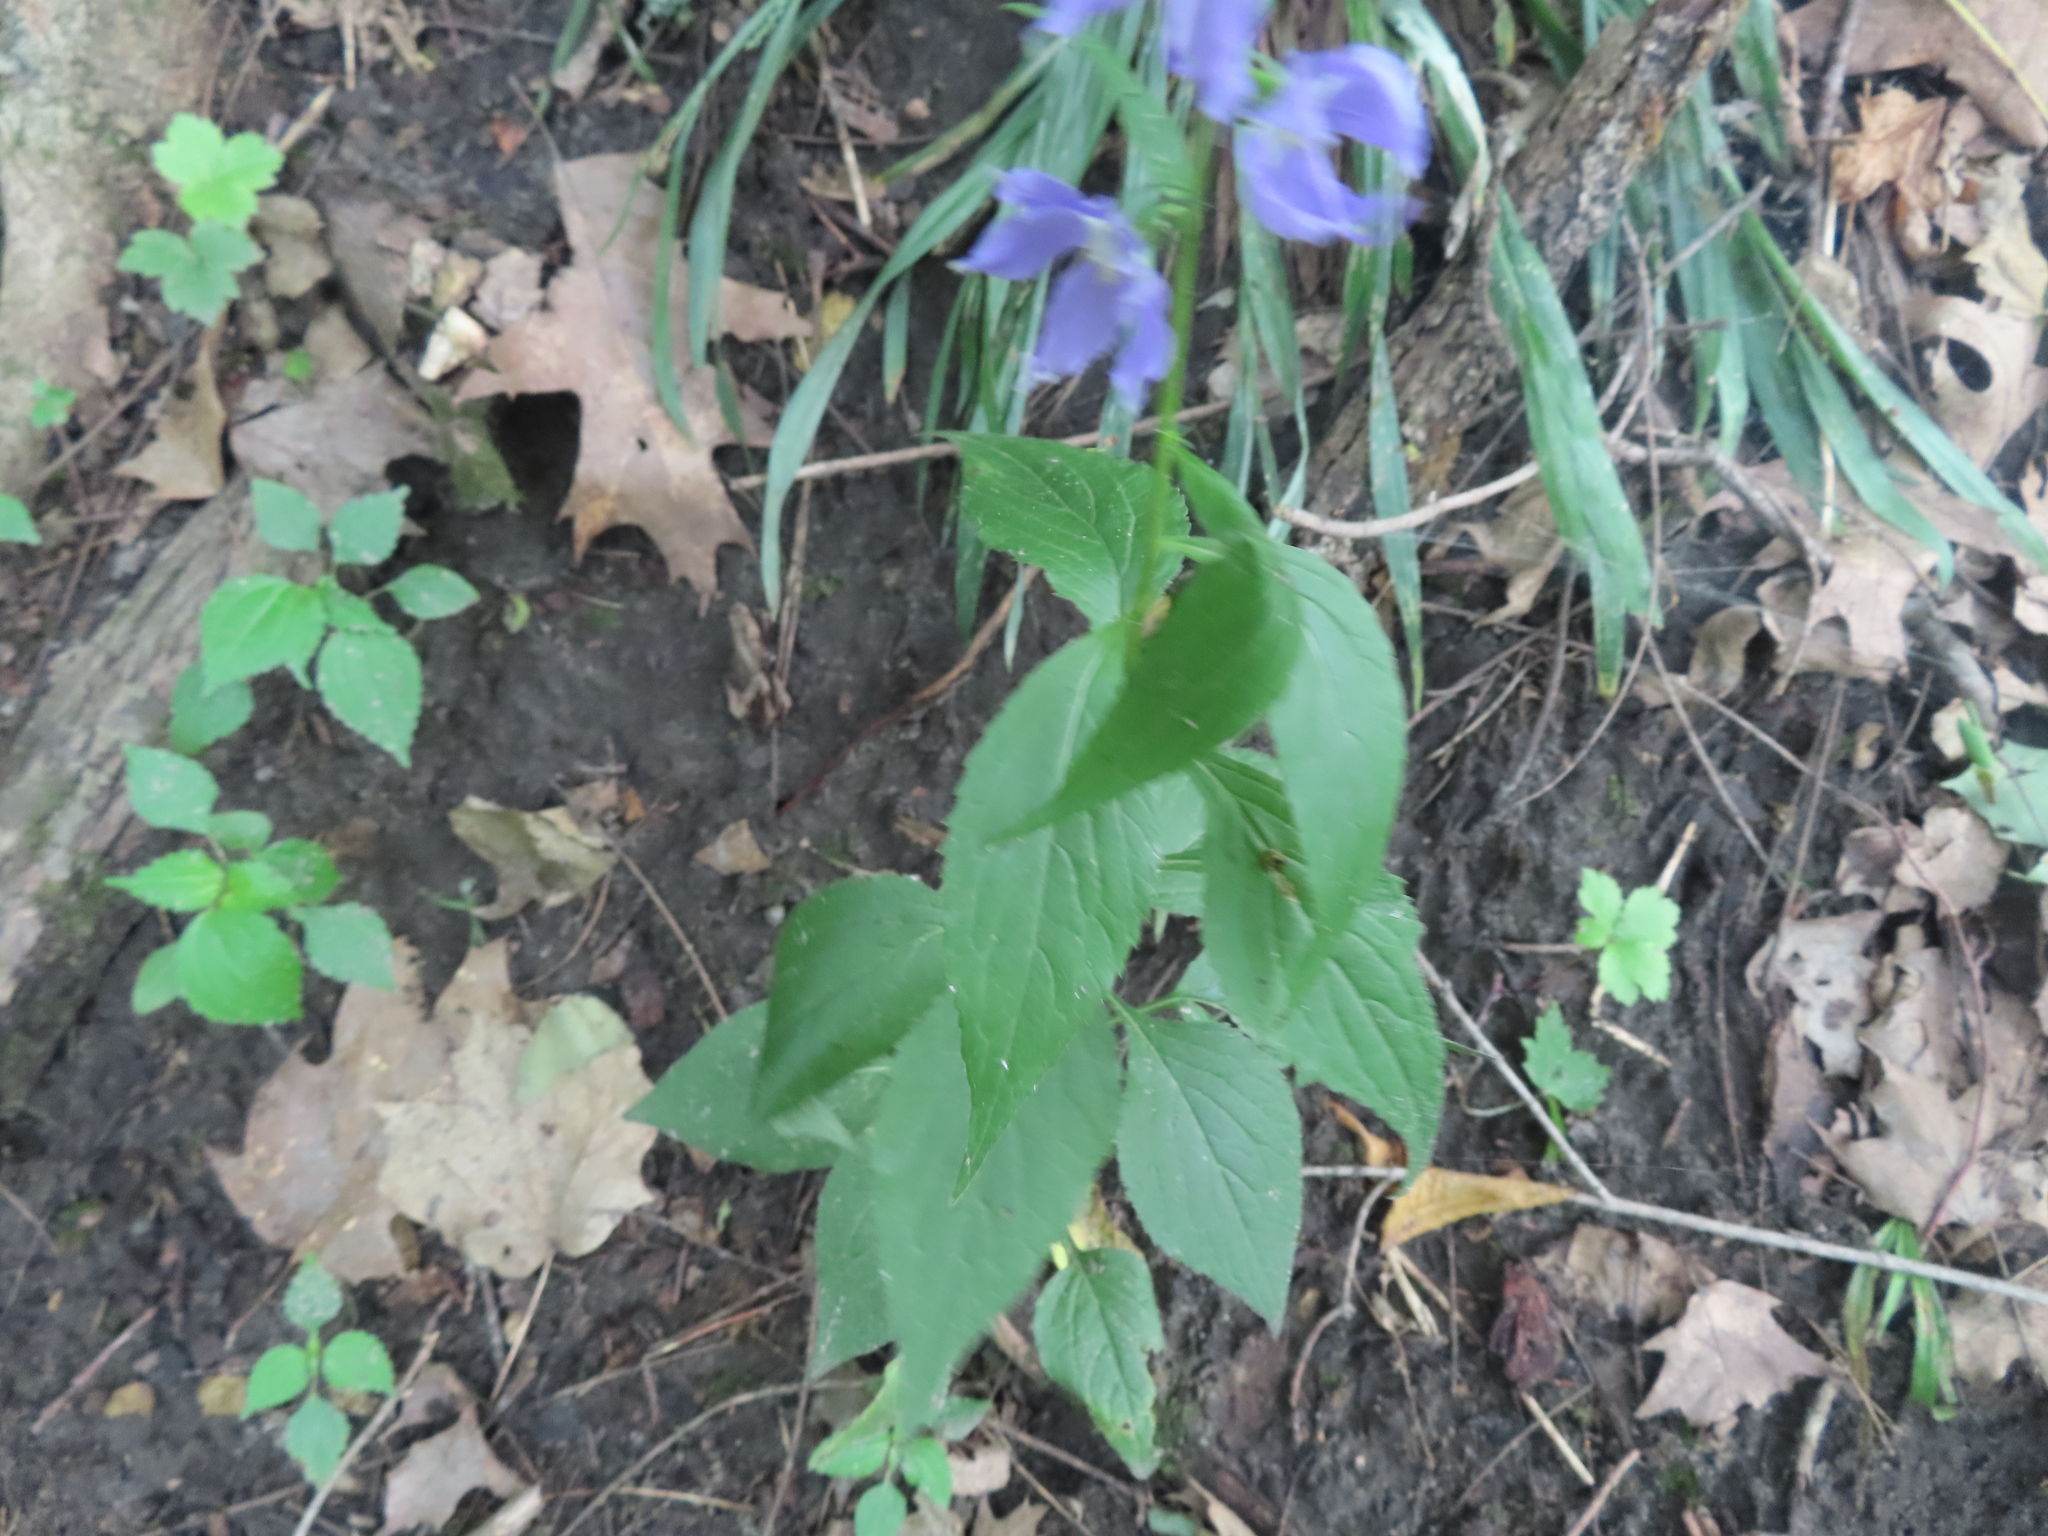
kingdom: Plantae
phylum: Tracheophyta
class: Magnoliopsida
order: Asterales
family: Campanulaceae
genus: Campanulastrum
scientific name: Campanulastrum americanum
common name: American bellflower
